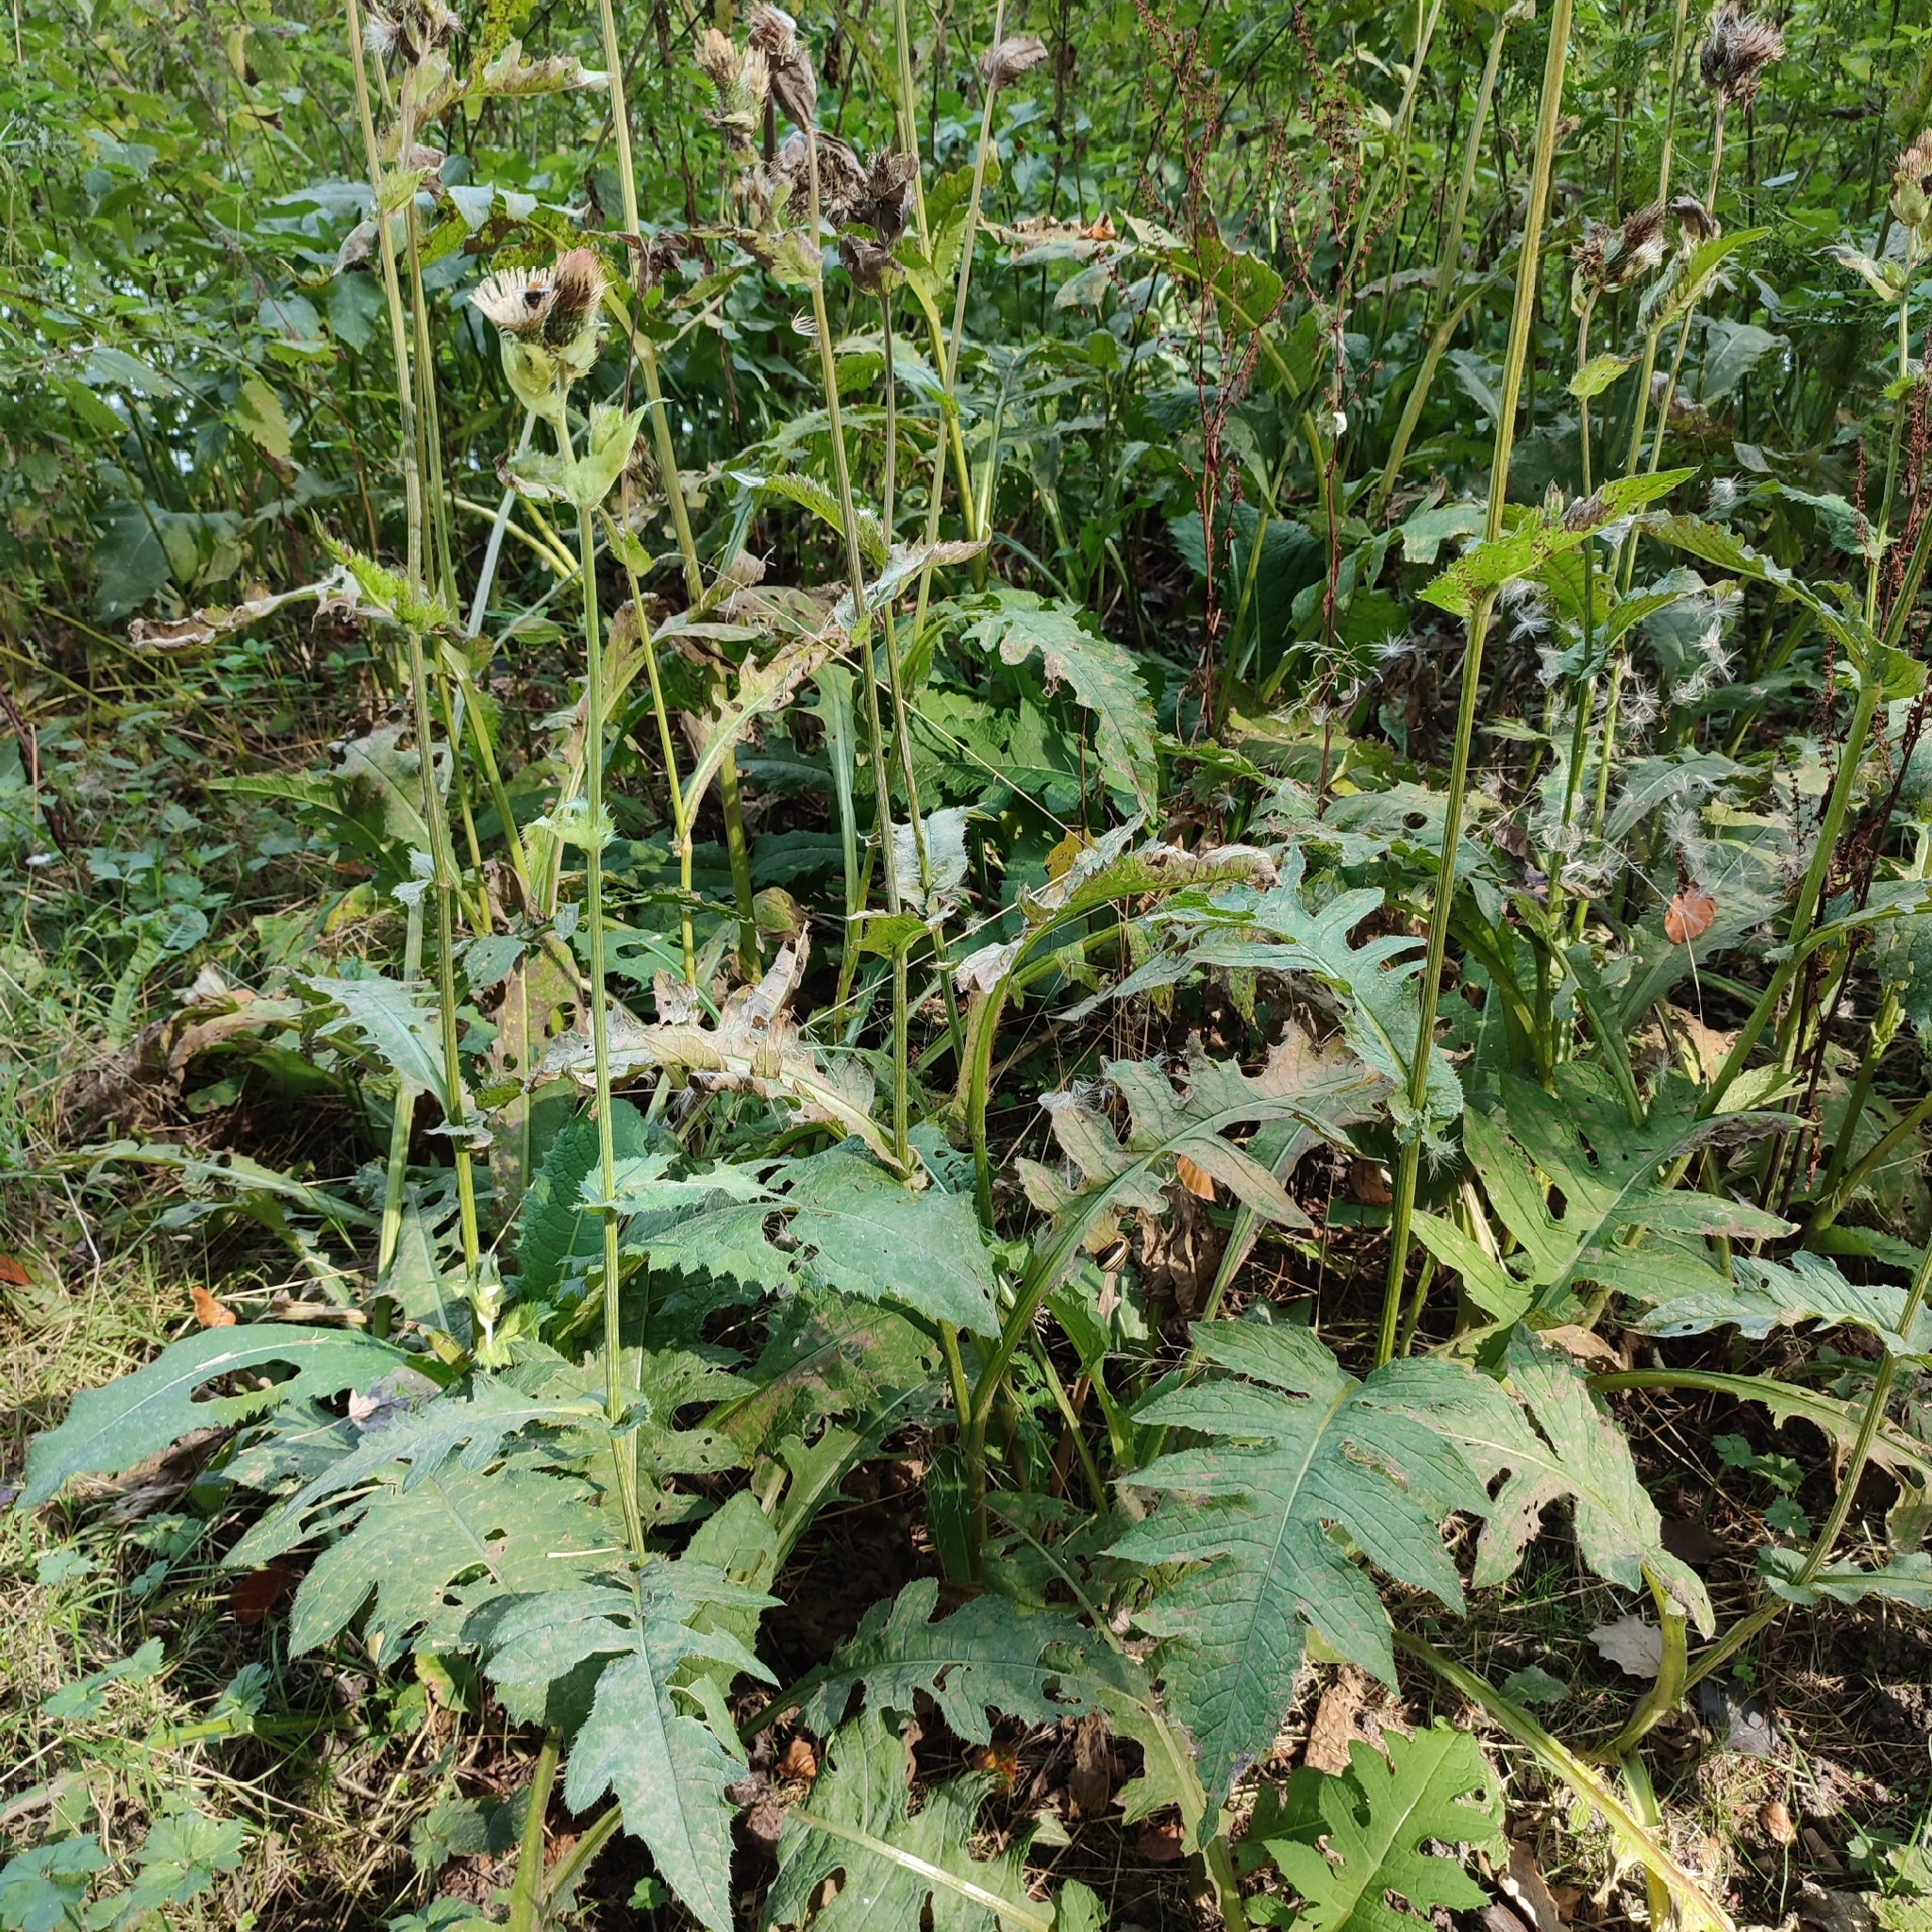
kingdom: Plantae
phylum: Tracheophyta
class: Magnoliopsida
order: Asterales
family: Asteraceae
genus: Cirsium
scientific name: Cirsium oleraceum
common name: Cabbage thistle
